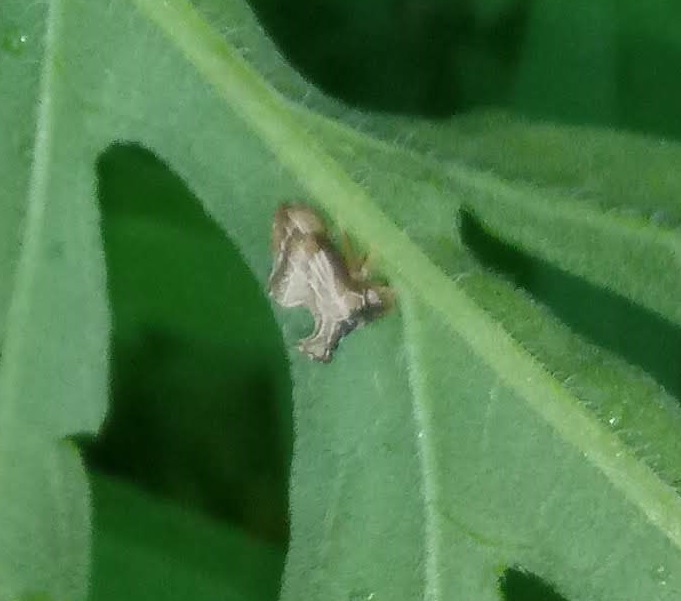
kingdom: Animalia
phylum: Arthropoda
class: Insecta
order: Hemiptera
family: Membracidae
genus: Entylia
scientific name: Entylia carinata
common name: Keeled treehopper
